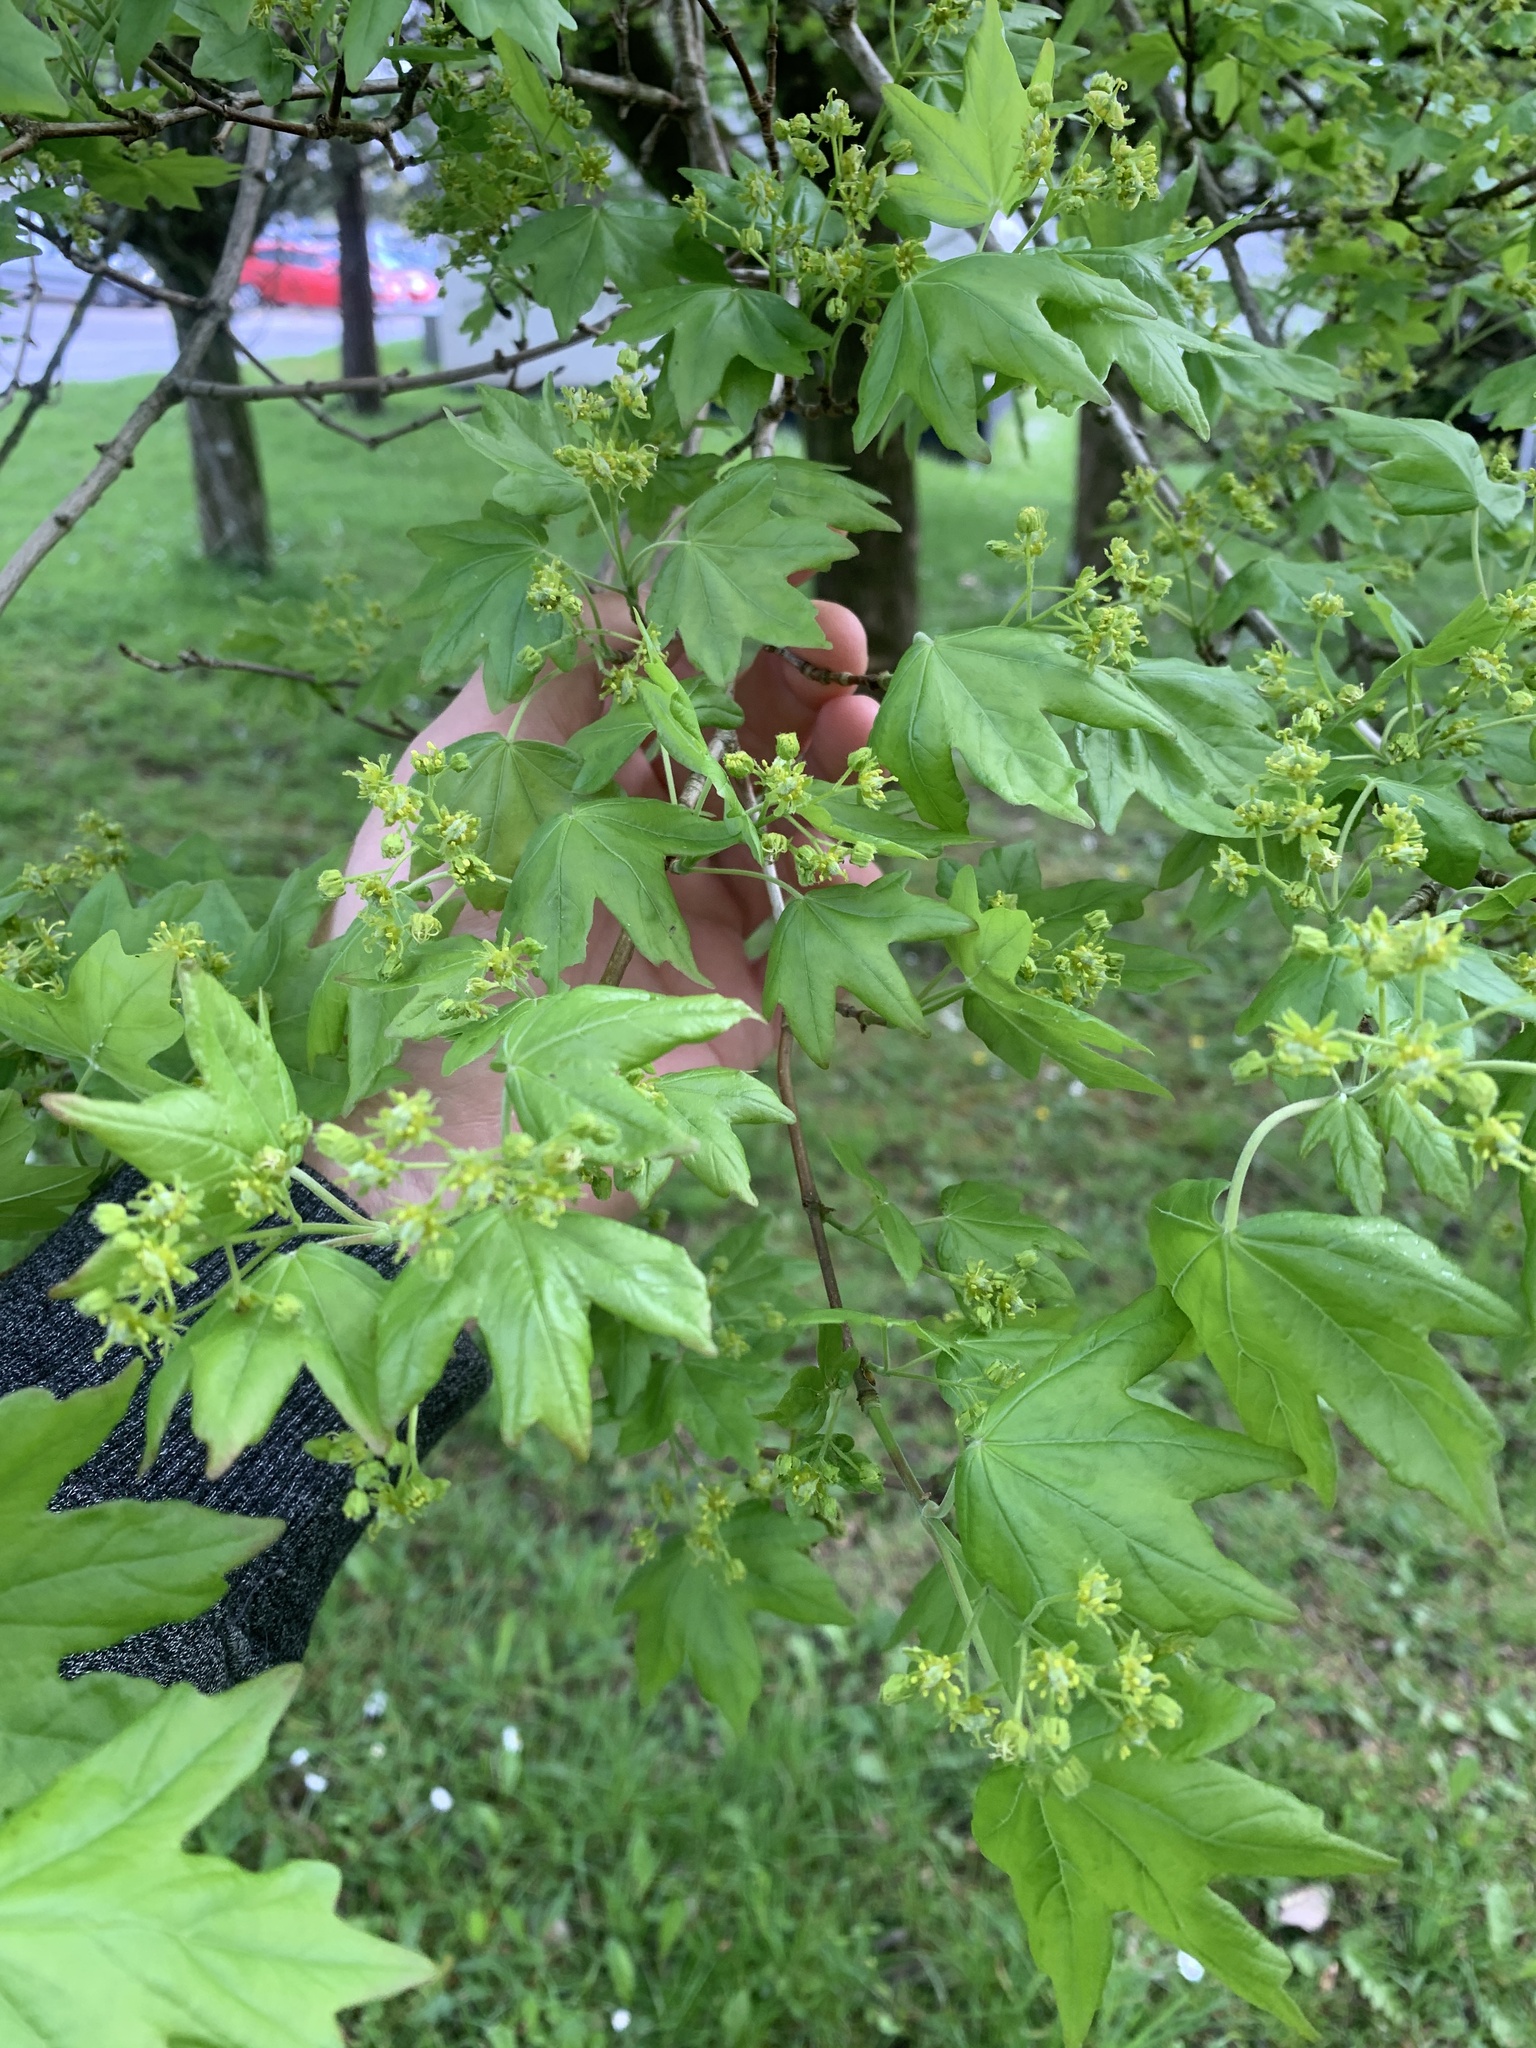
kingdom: Plantae
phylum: Tracheophyta
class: Magnoliopsida
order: Sapindales
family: Sapindaceae
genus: Acer
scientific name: Acer campestre
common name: Field maple
